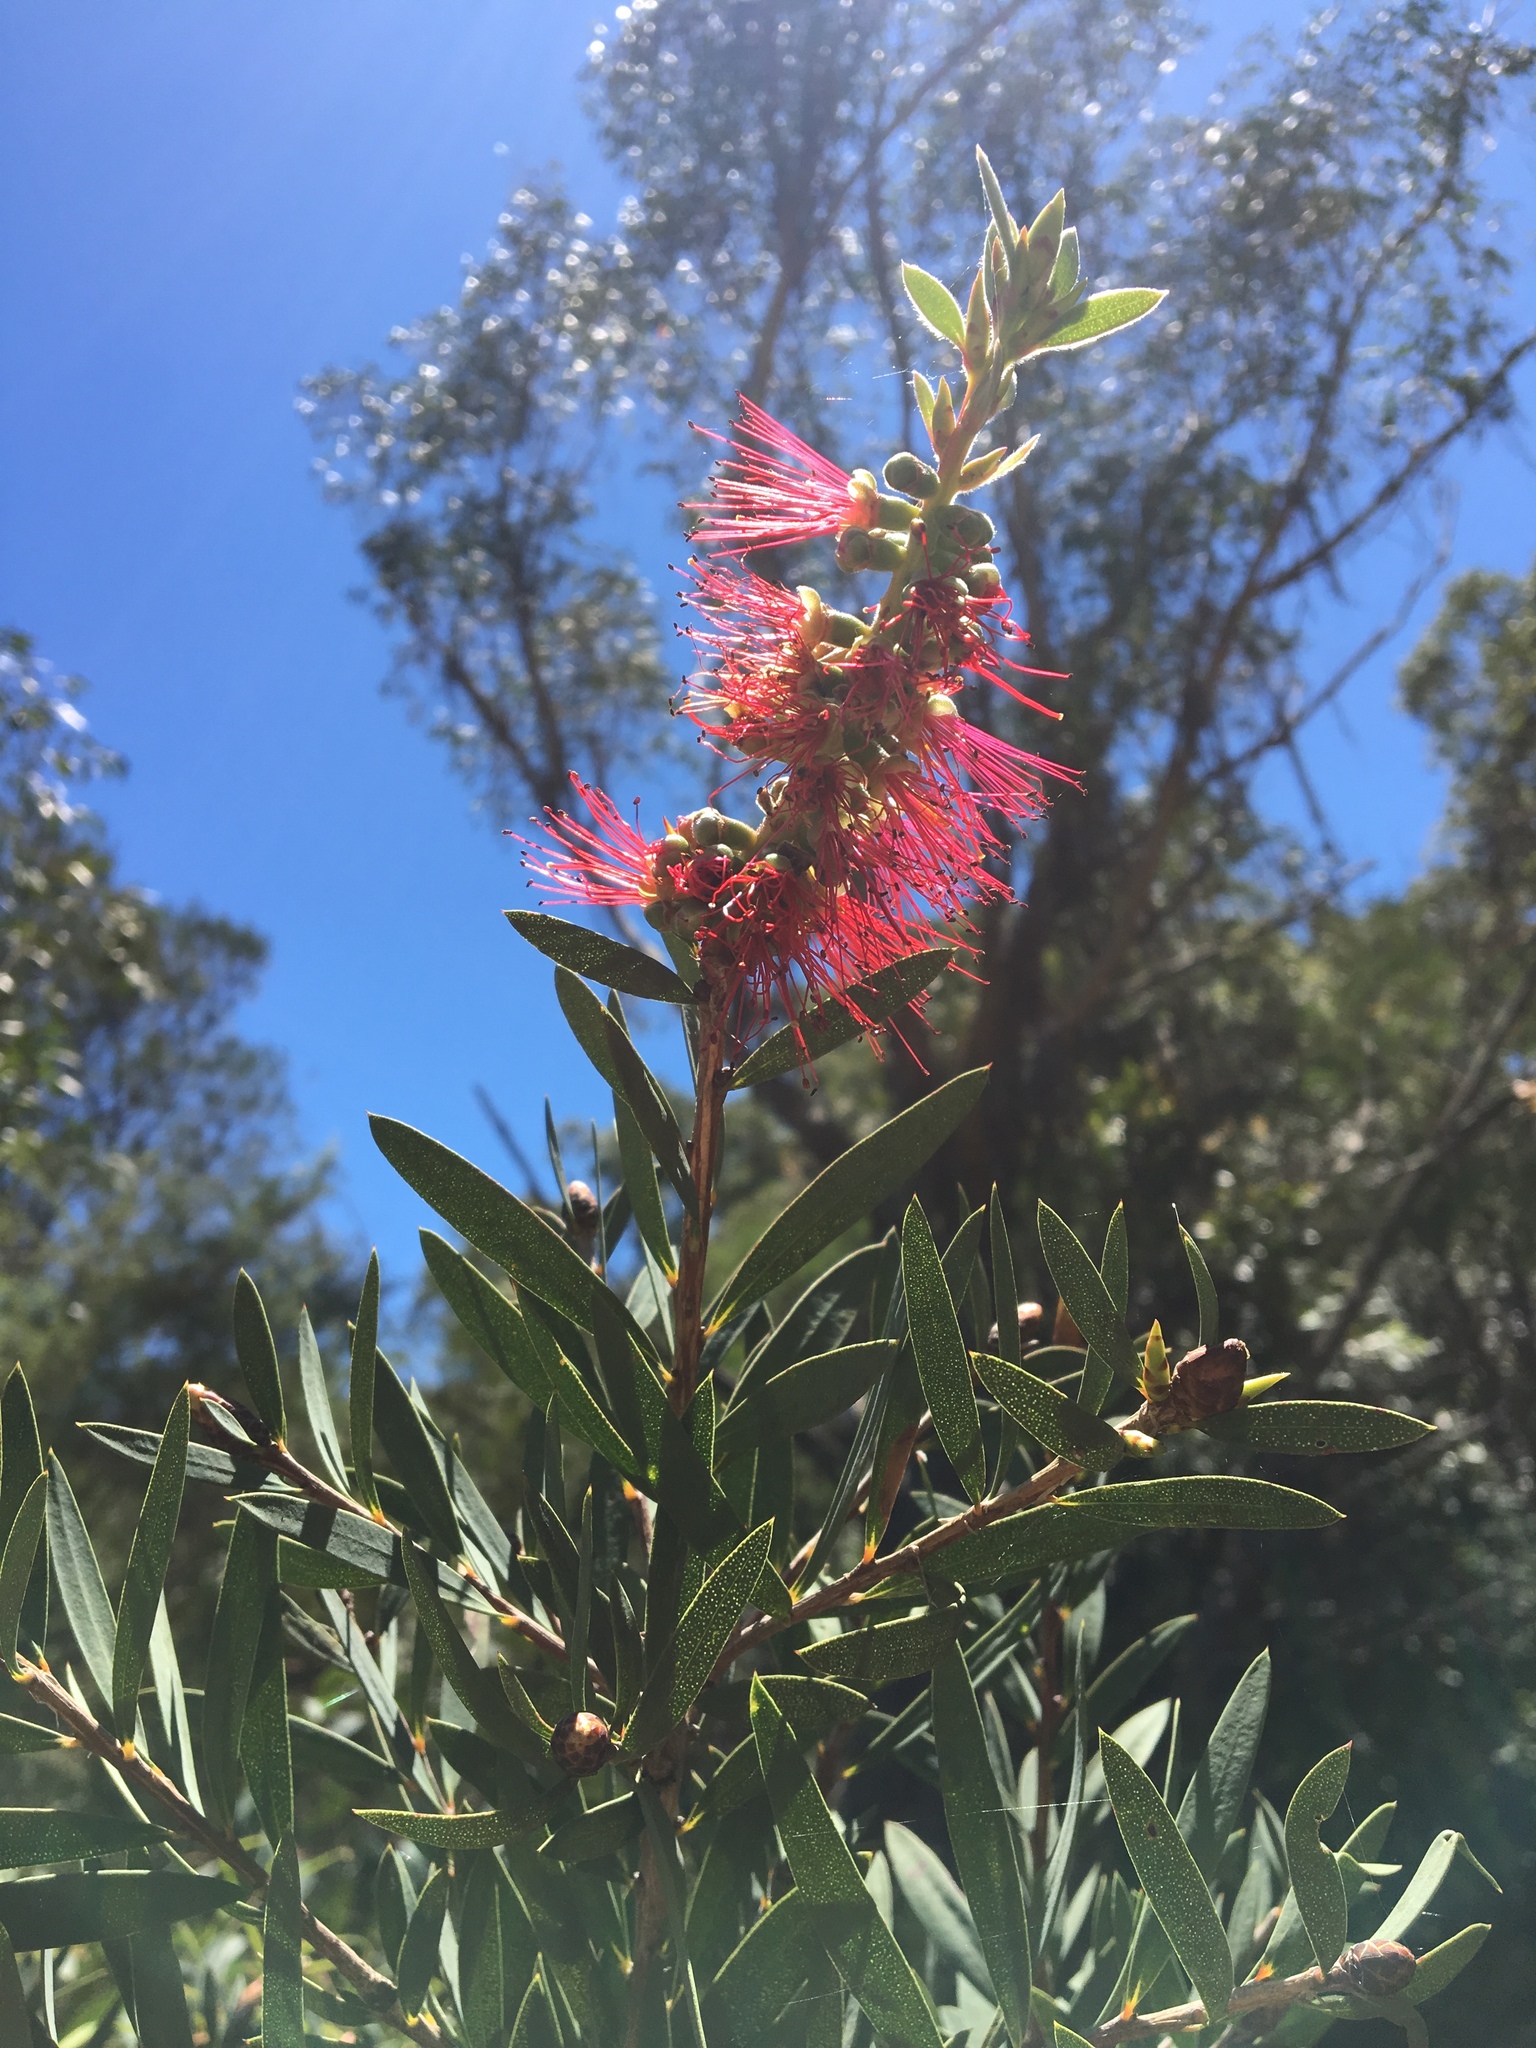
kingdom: Plantae
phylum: Tracheophyta
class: Magnoliopsida
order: Myrtales
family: Myrtaceae
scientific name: Myrtaceae
